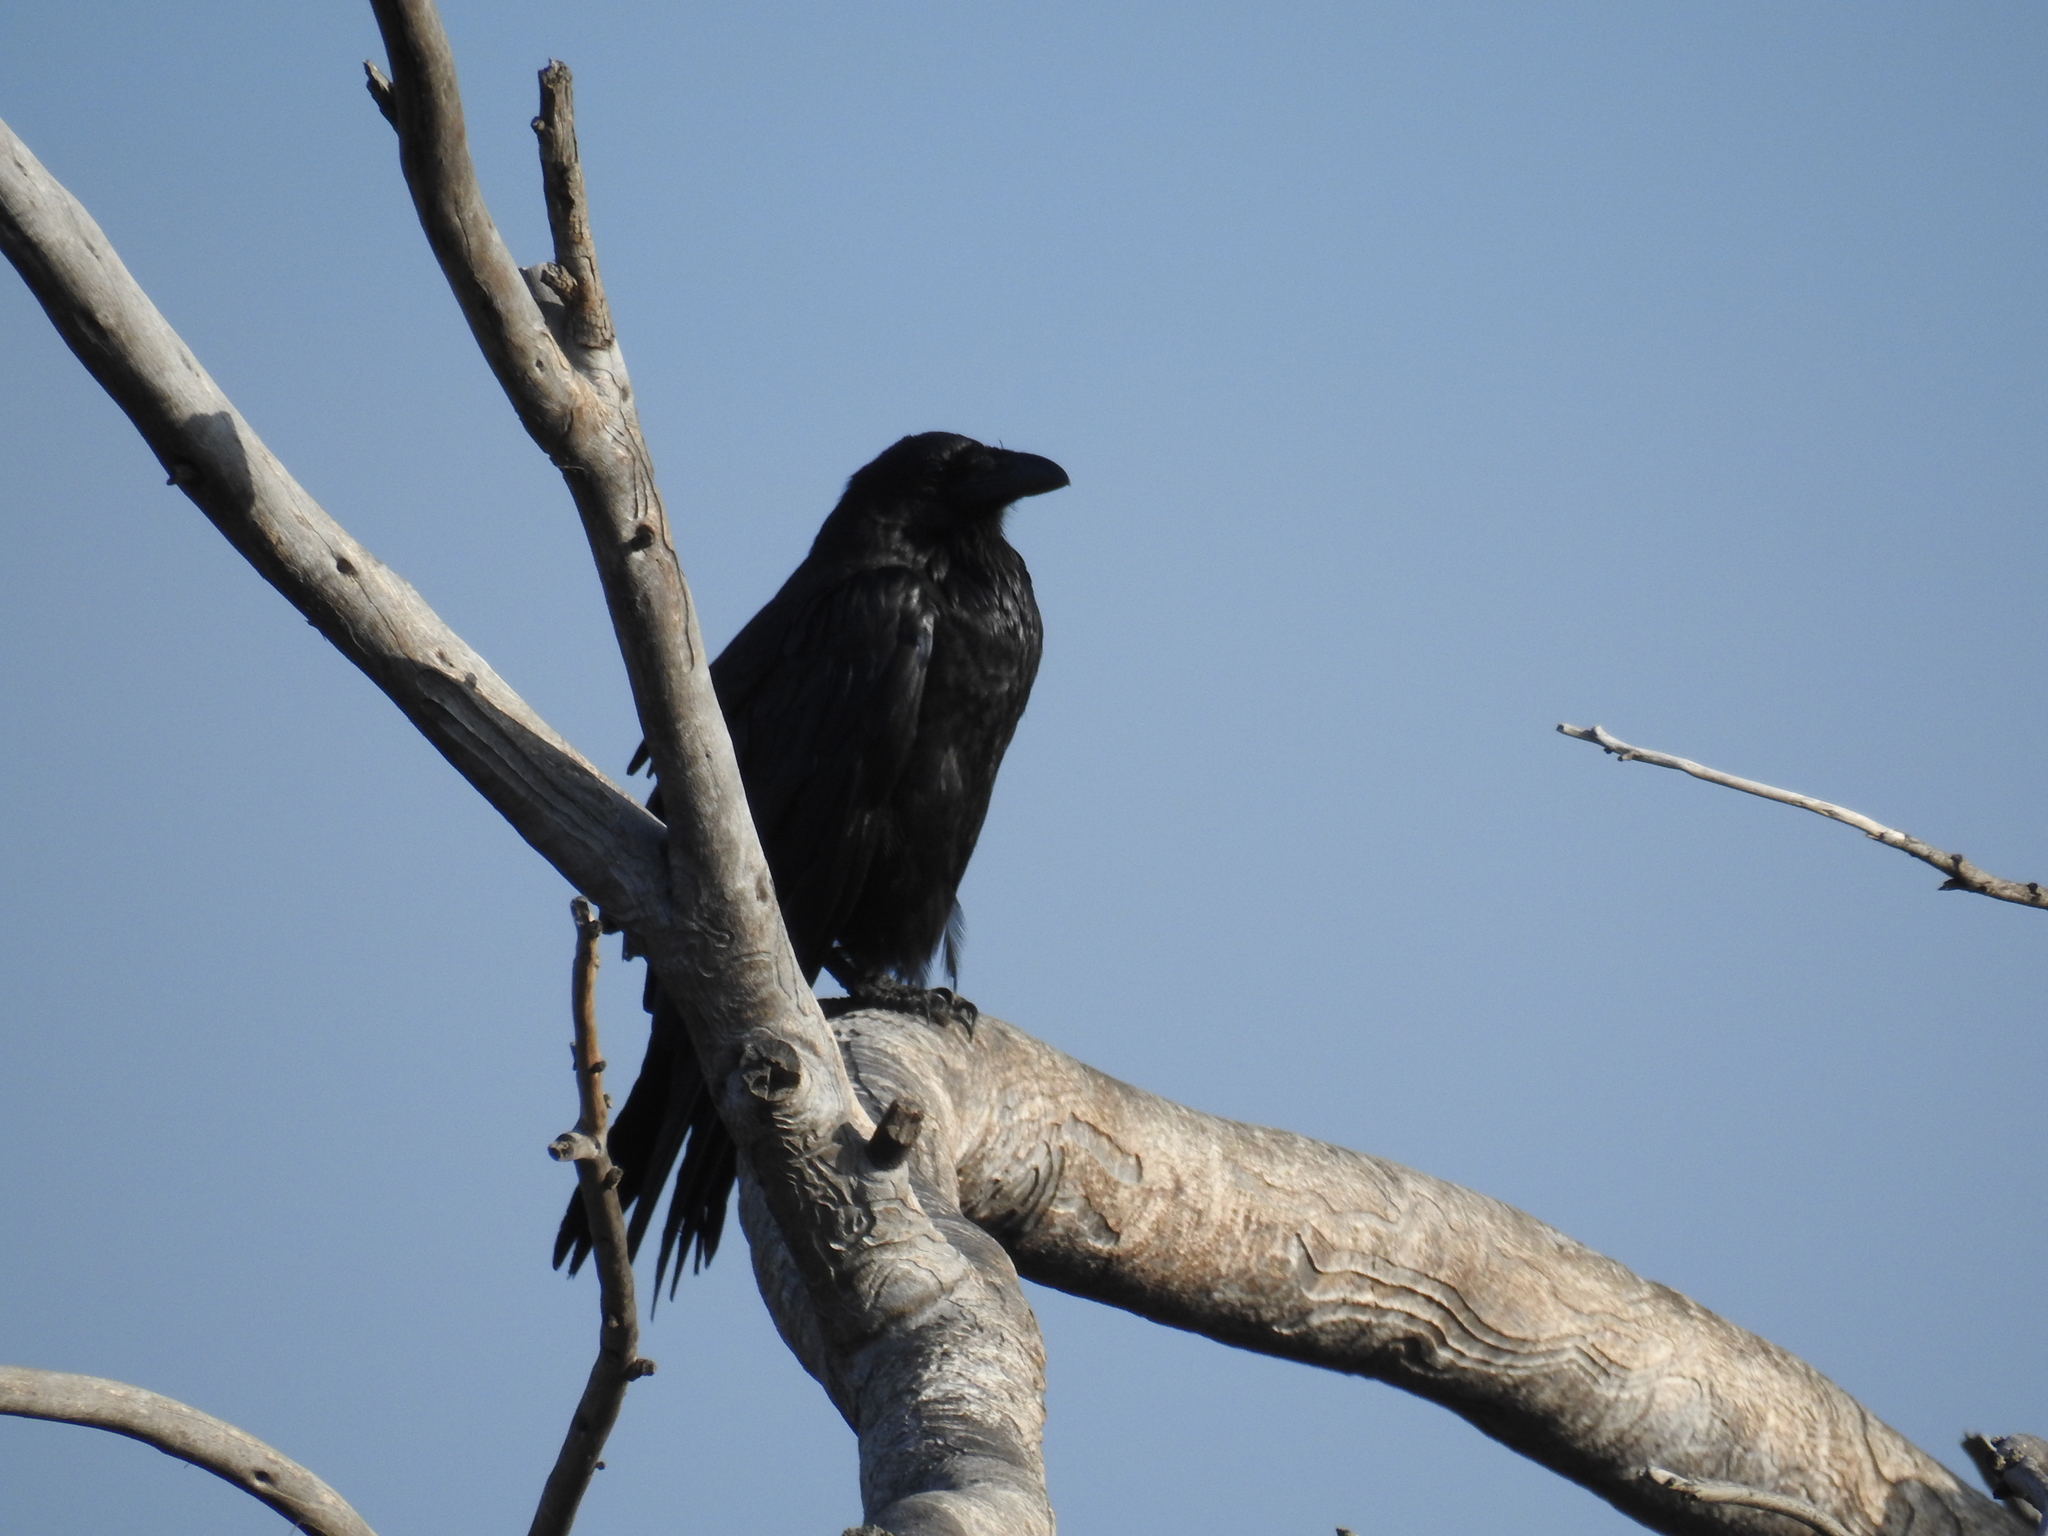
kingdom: Animalia
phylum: Chordata
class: Aves
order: Passeriformes
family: Corvidae
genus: Corvus
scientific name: Corvus corax
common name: Common raven
